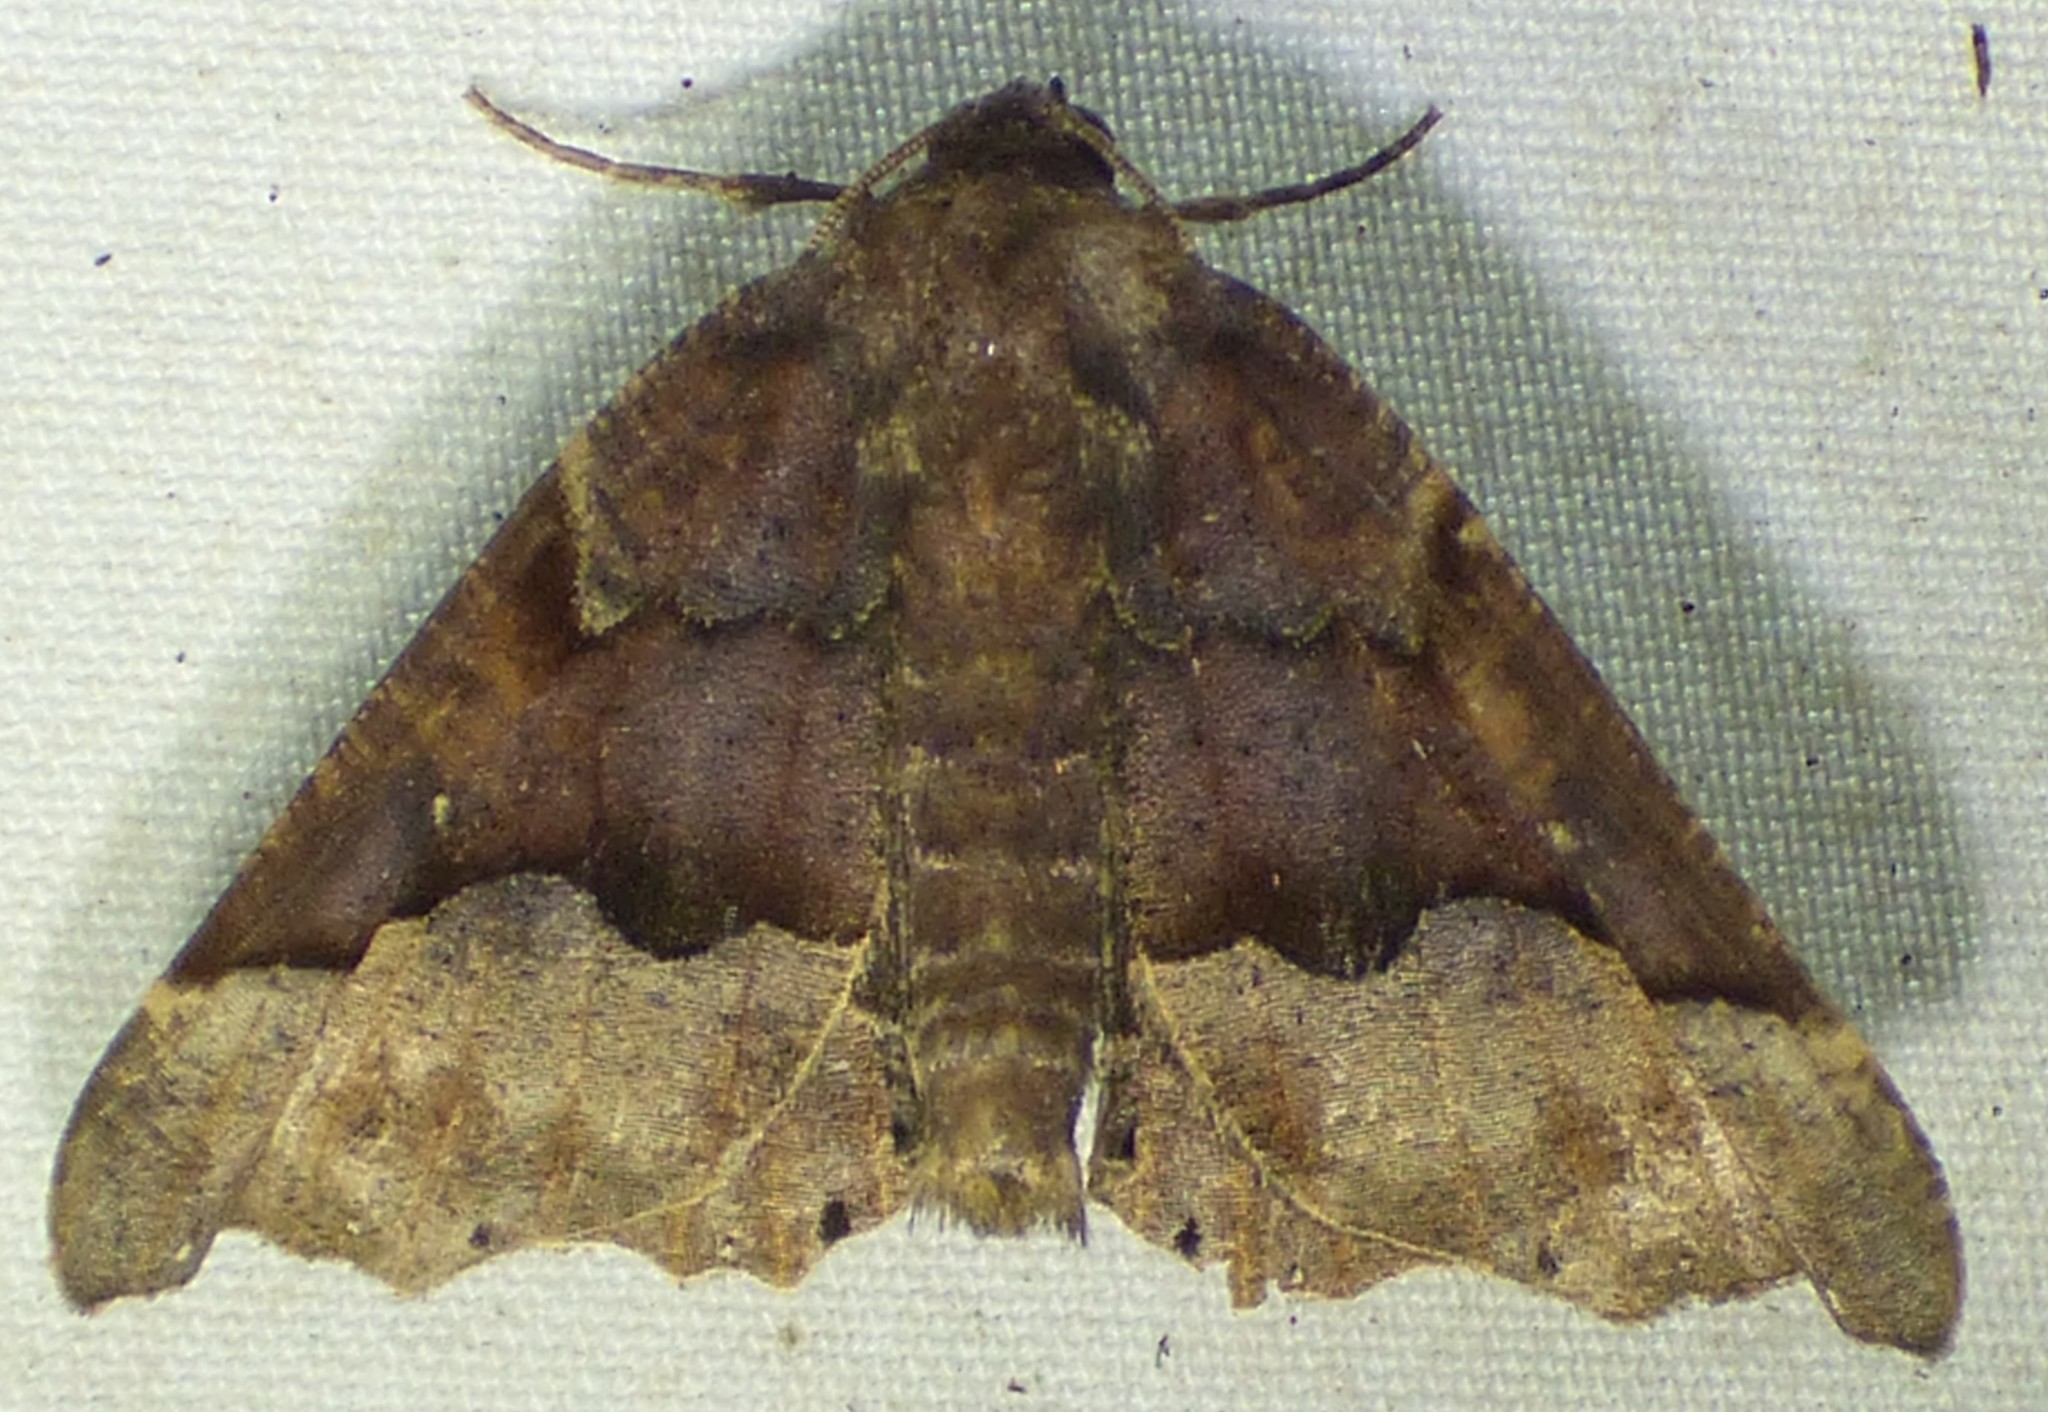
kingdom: Animalia
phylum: Arthropoda
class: Insecta
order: Lepidoptera
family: Geometridae
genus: Pero
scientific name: Pero ancetaria
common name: Hübner's pero
